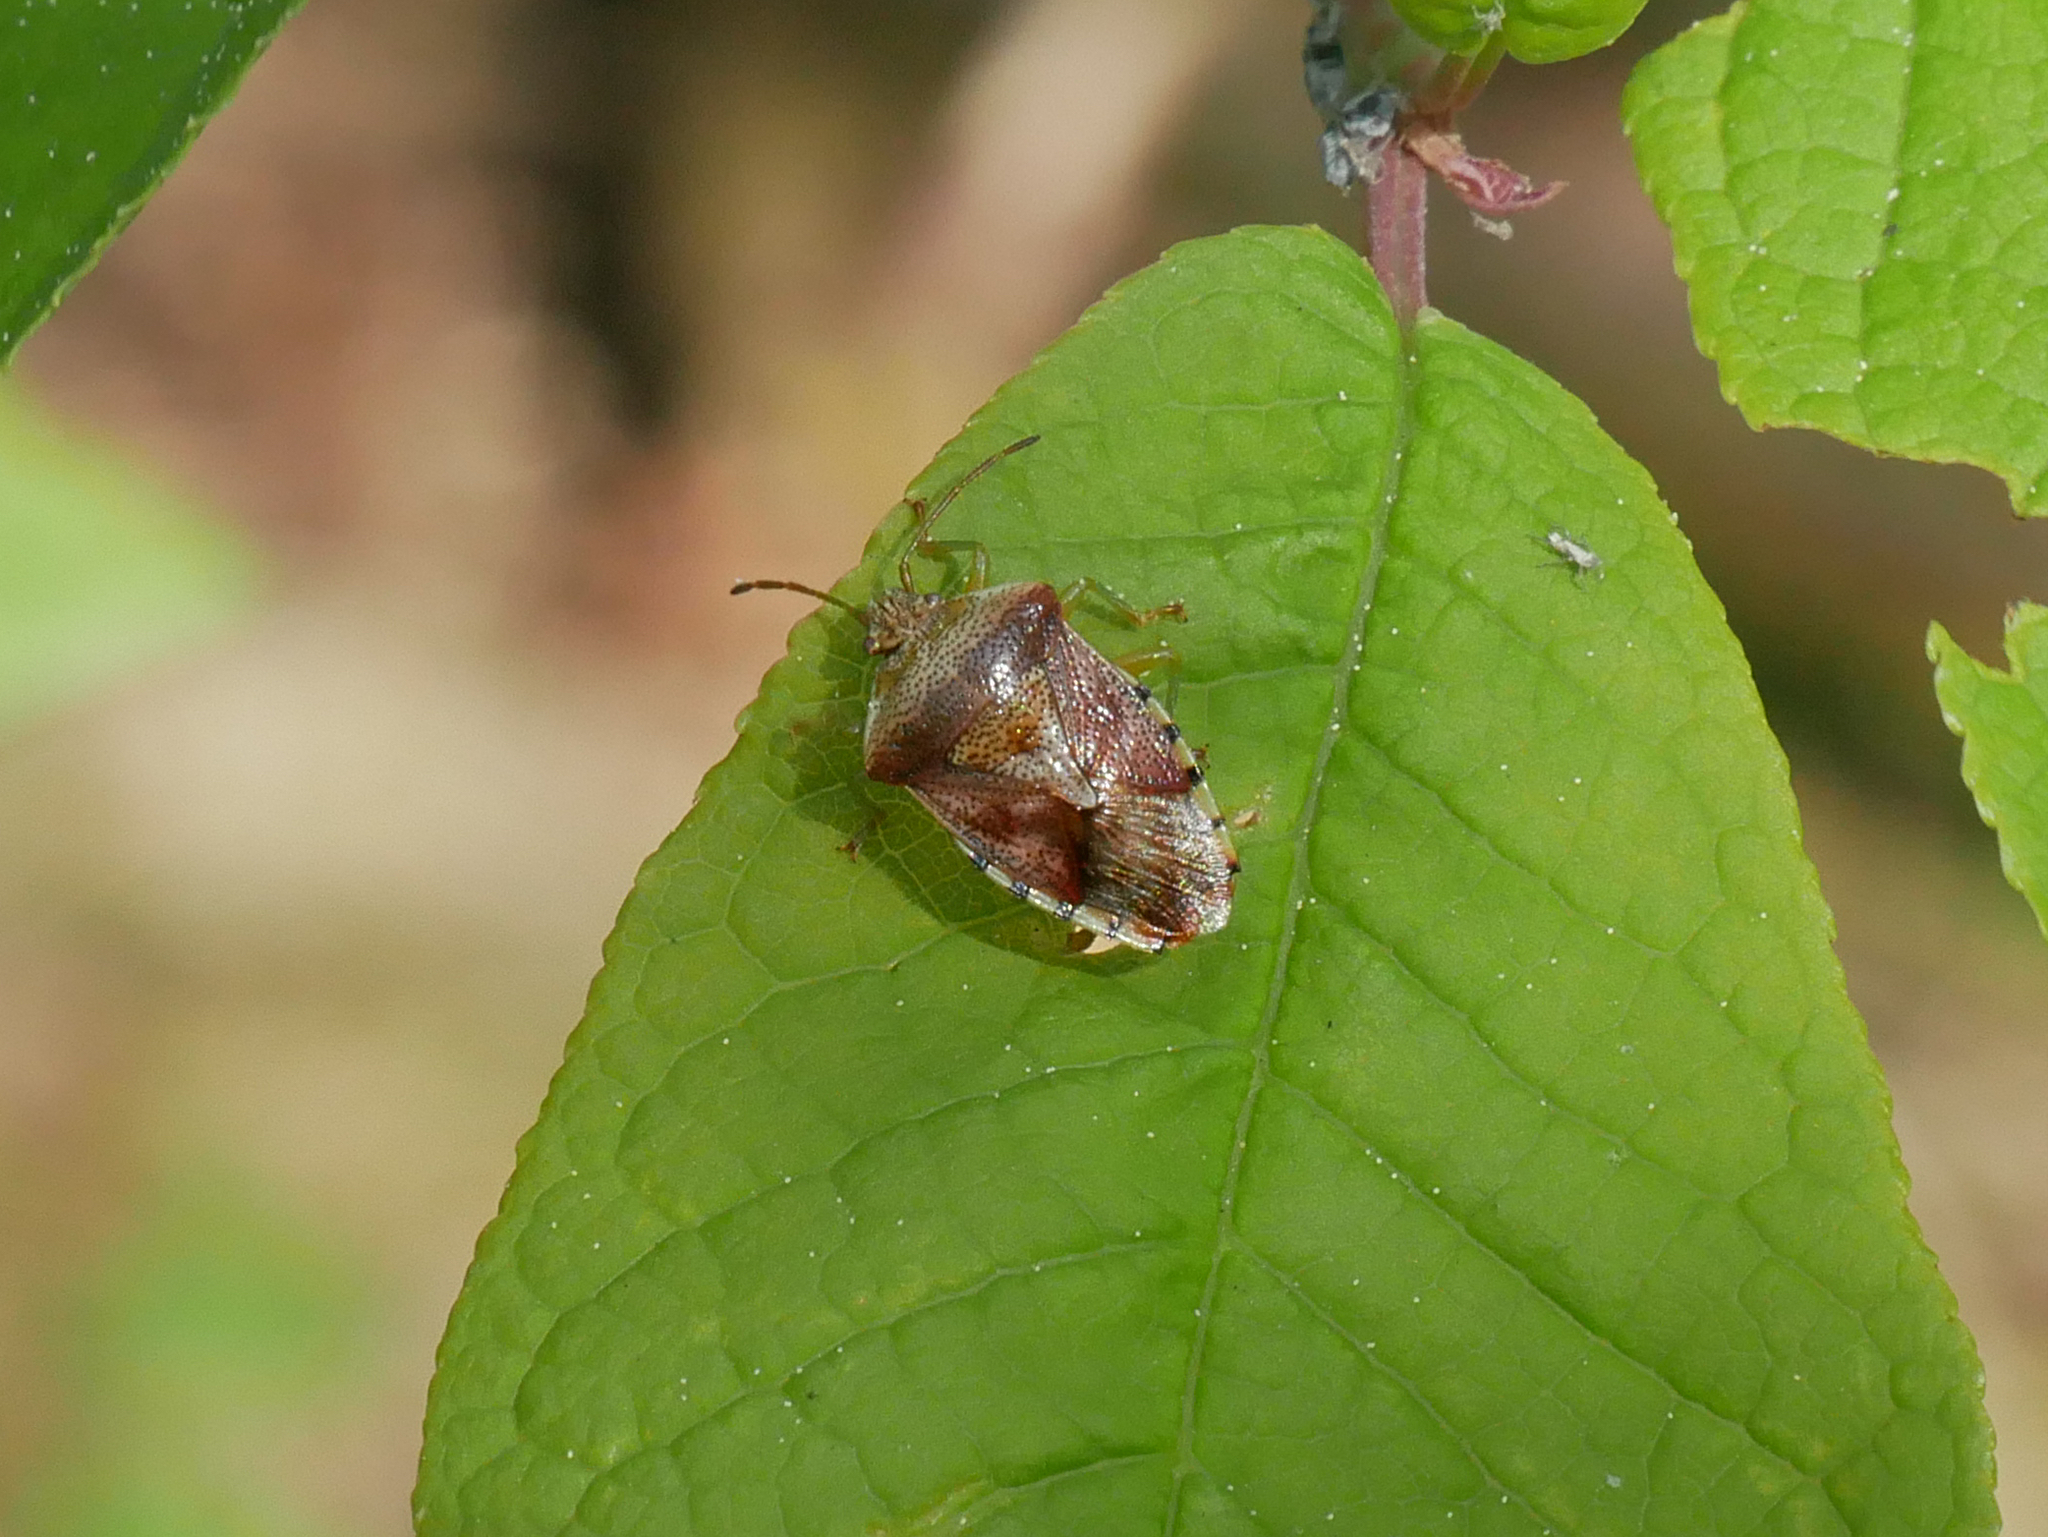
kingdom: Animalia
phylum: Arthropoda
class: Insecta
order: Hemiptera
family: Acanthosomatidae
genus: Elasmucha
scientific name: Elasmucha grisea
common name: Parent bug
